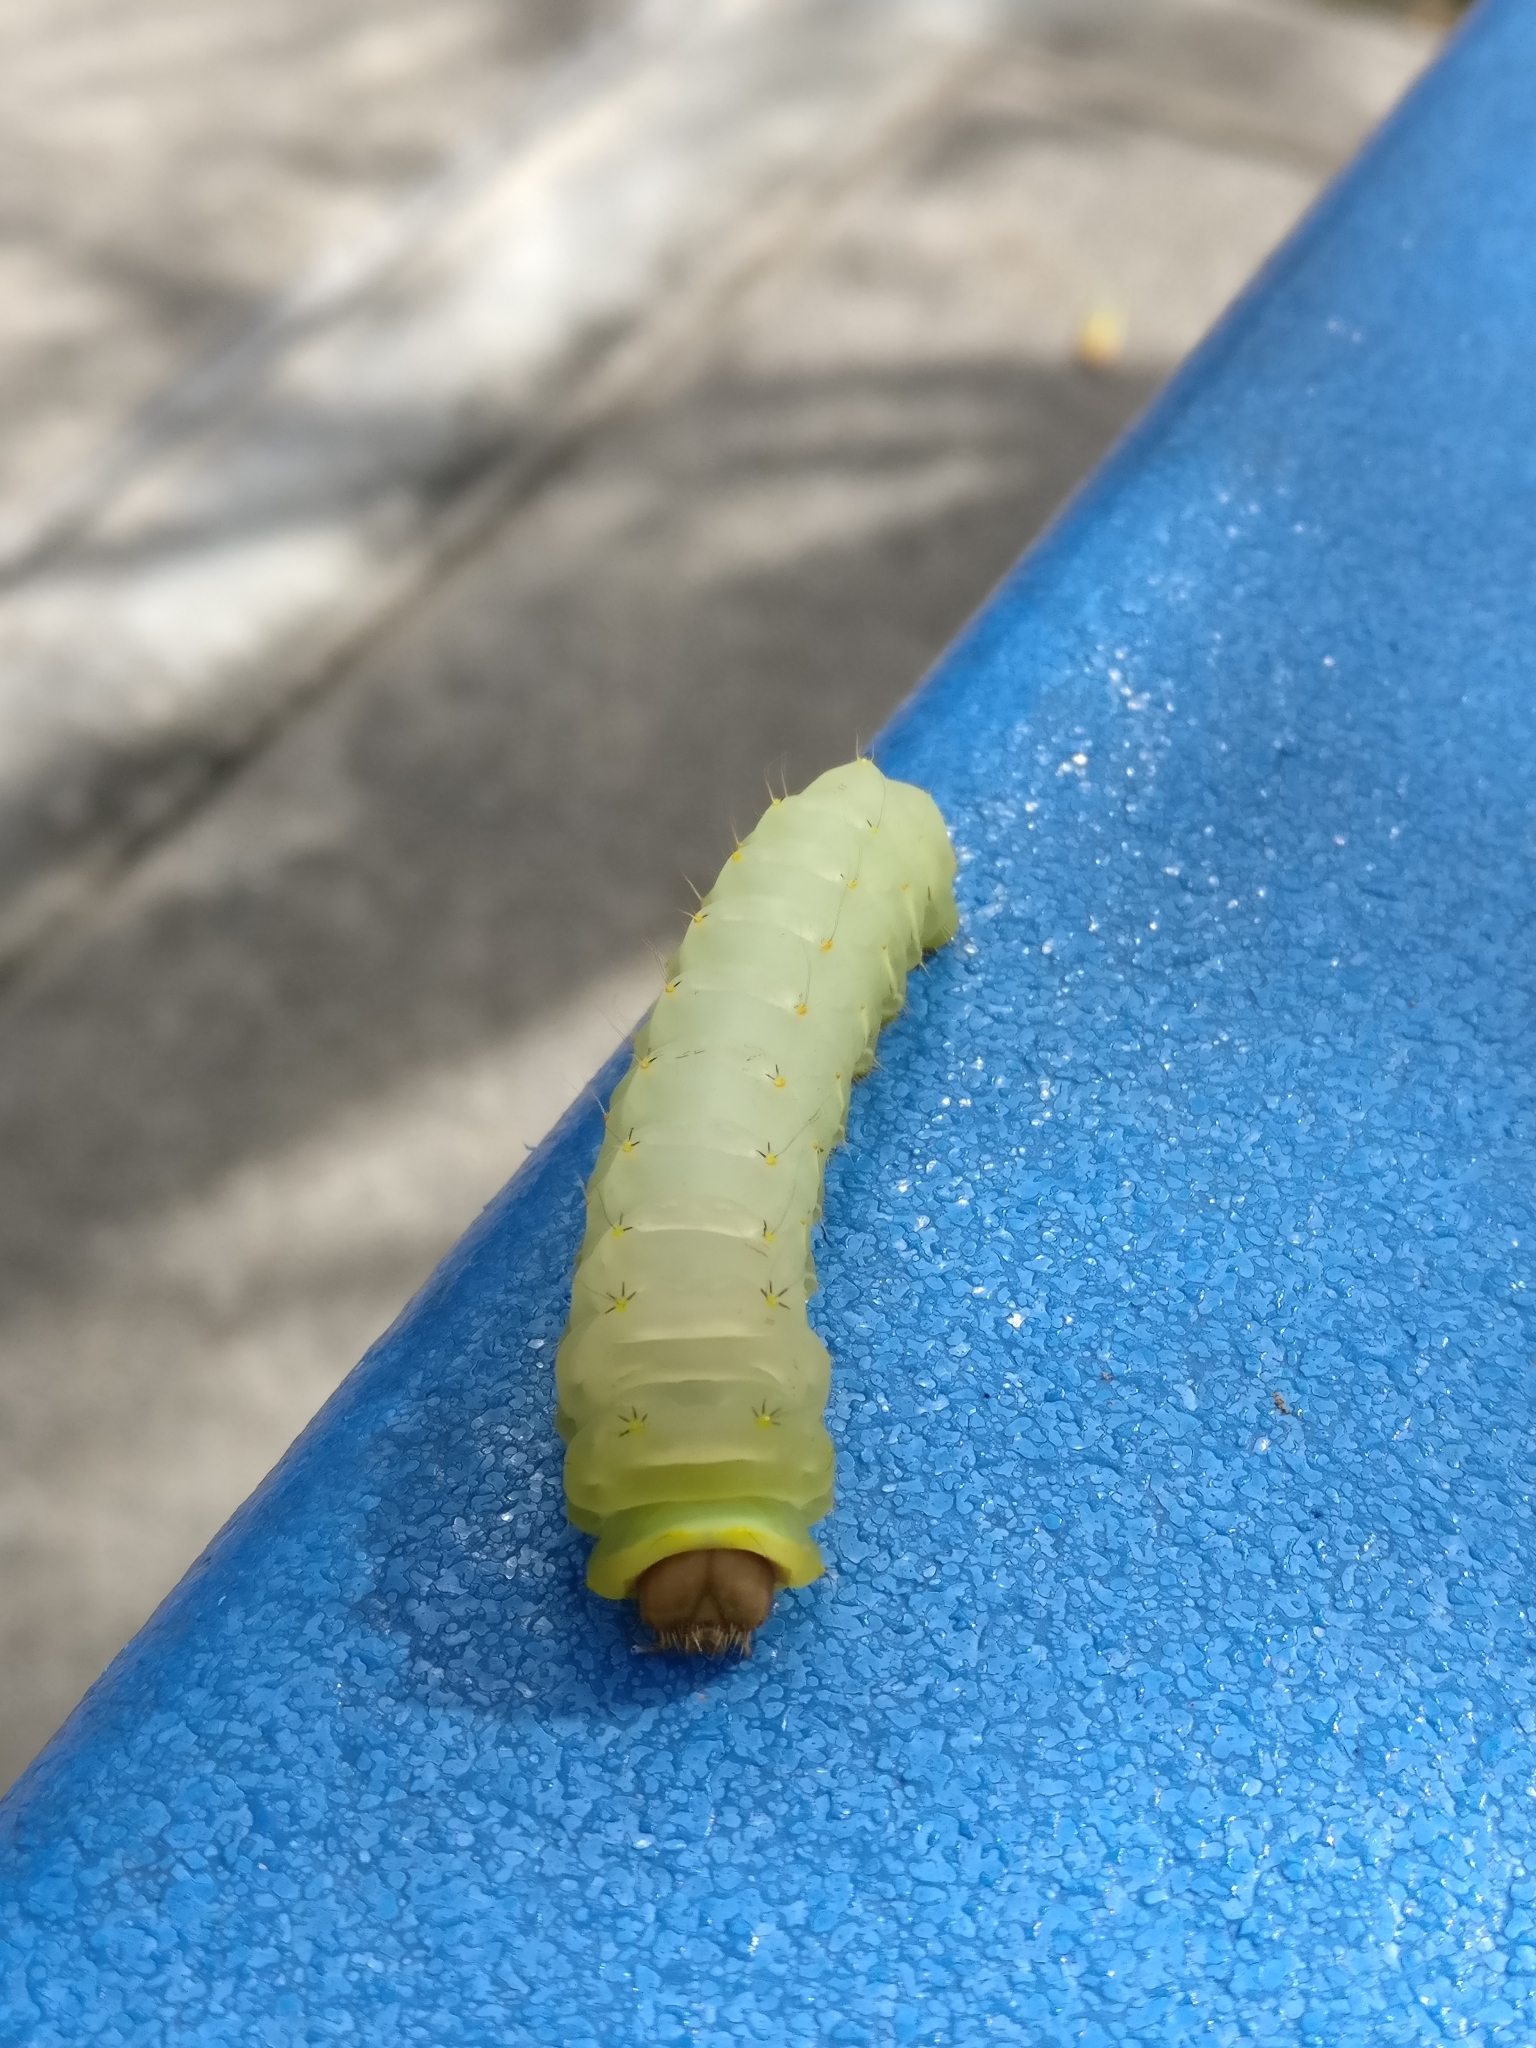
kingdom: Animalia
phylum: Arthropoda
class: Insecta
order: Lepidoptera
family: Saturniidae
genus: Antheraea
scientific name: Antheraea polyphemus
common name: Polyphemus moth
